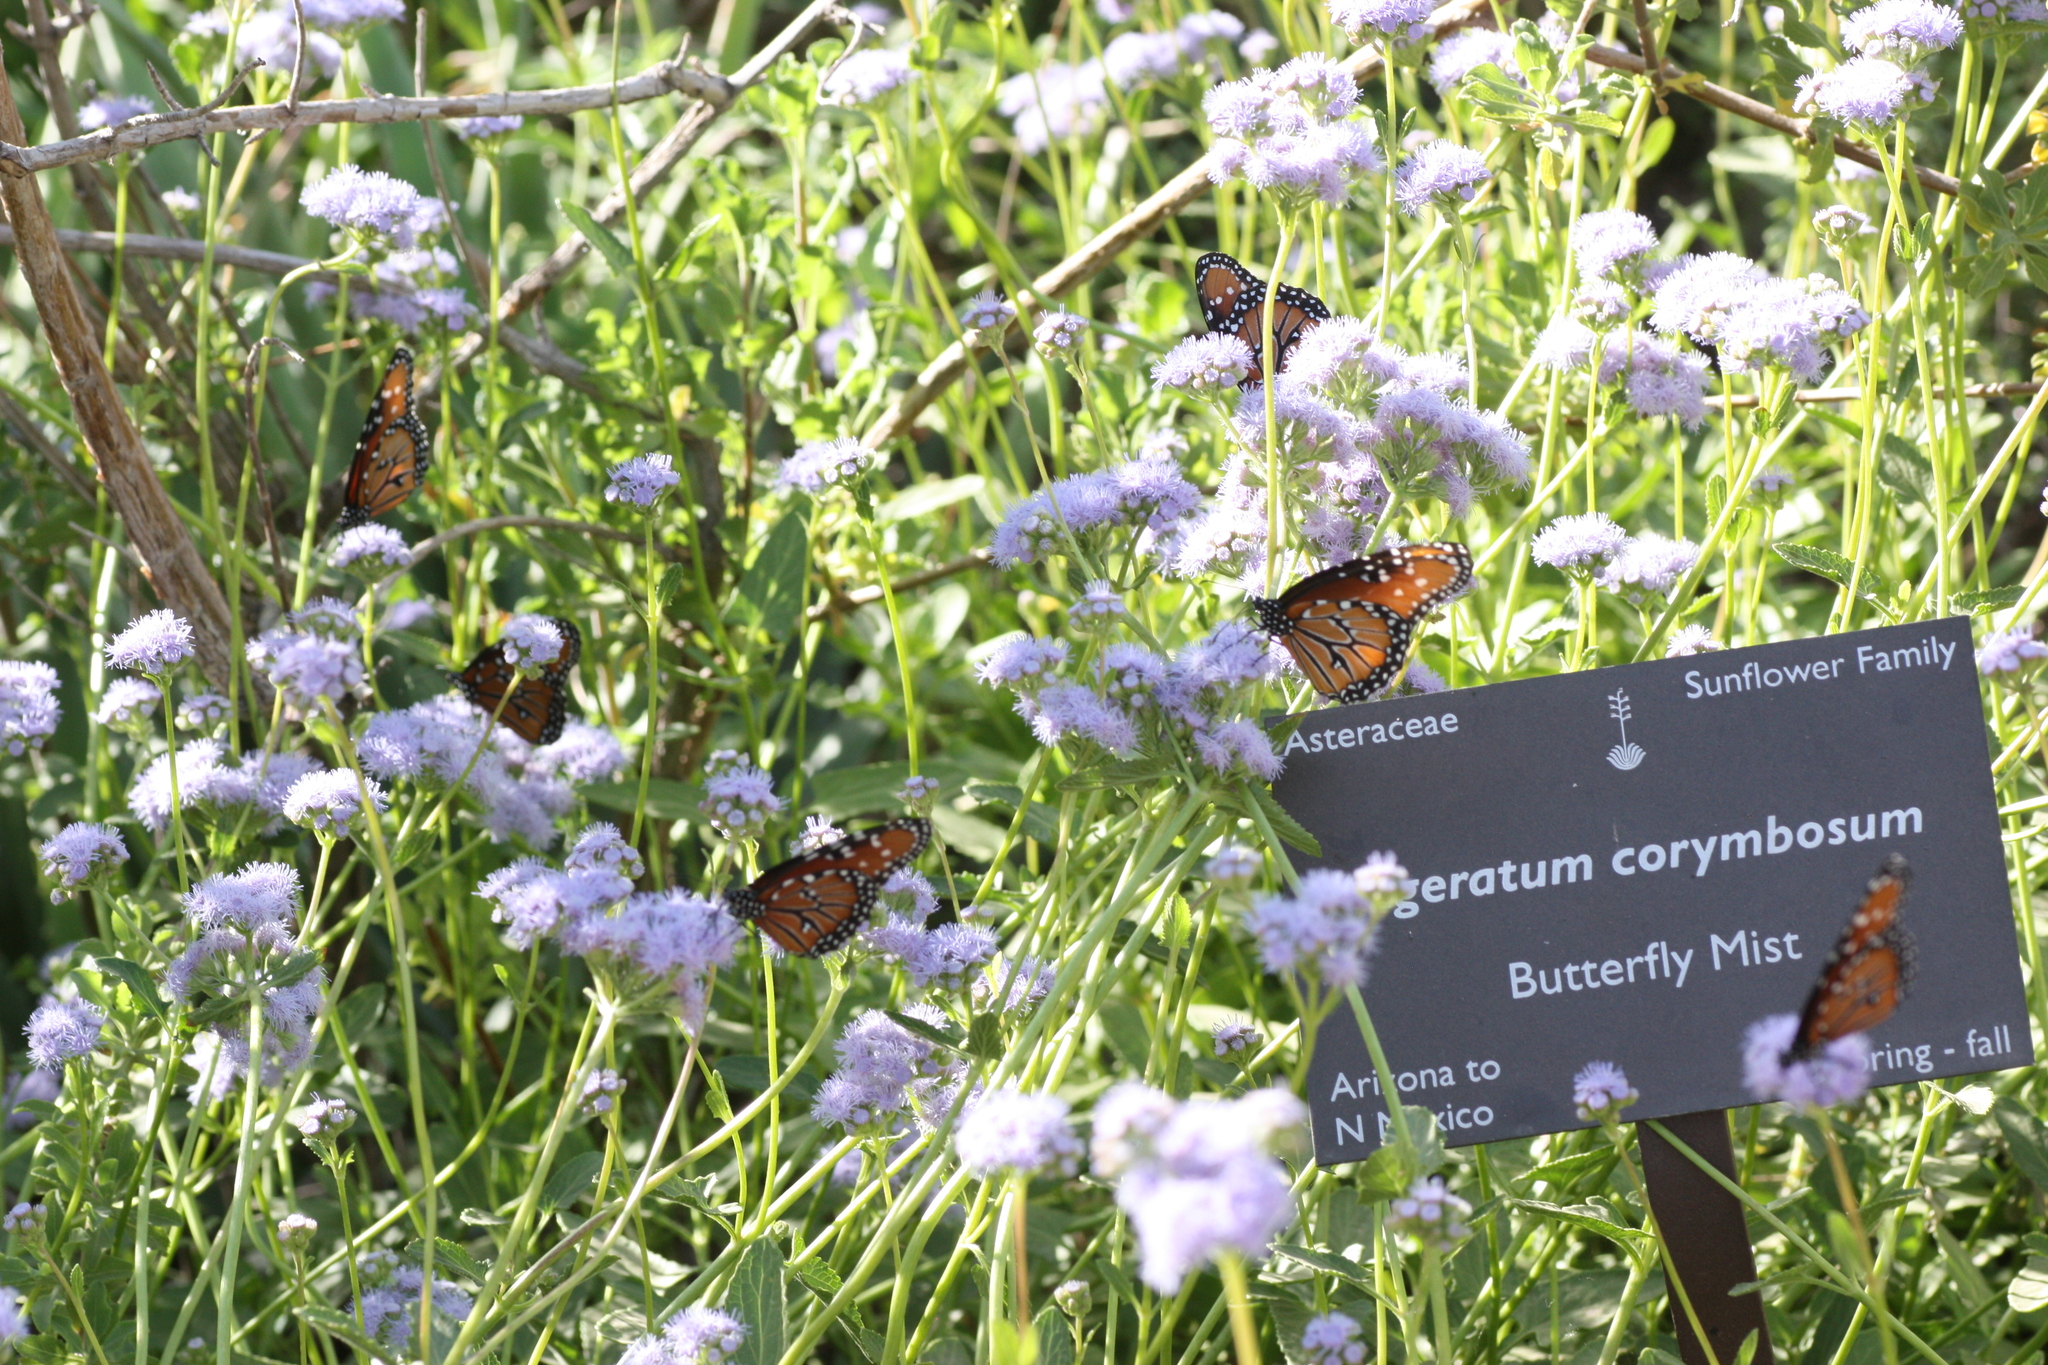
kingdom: Animalia
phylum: Arthropoda
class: Insecta
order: Lepidoptera
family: Nymphalidae
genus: Danaus
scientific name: Danaus gilippus
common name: Queen
